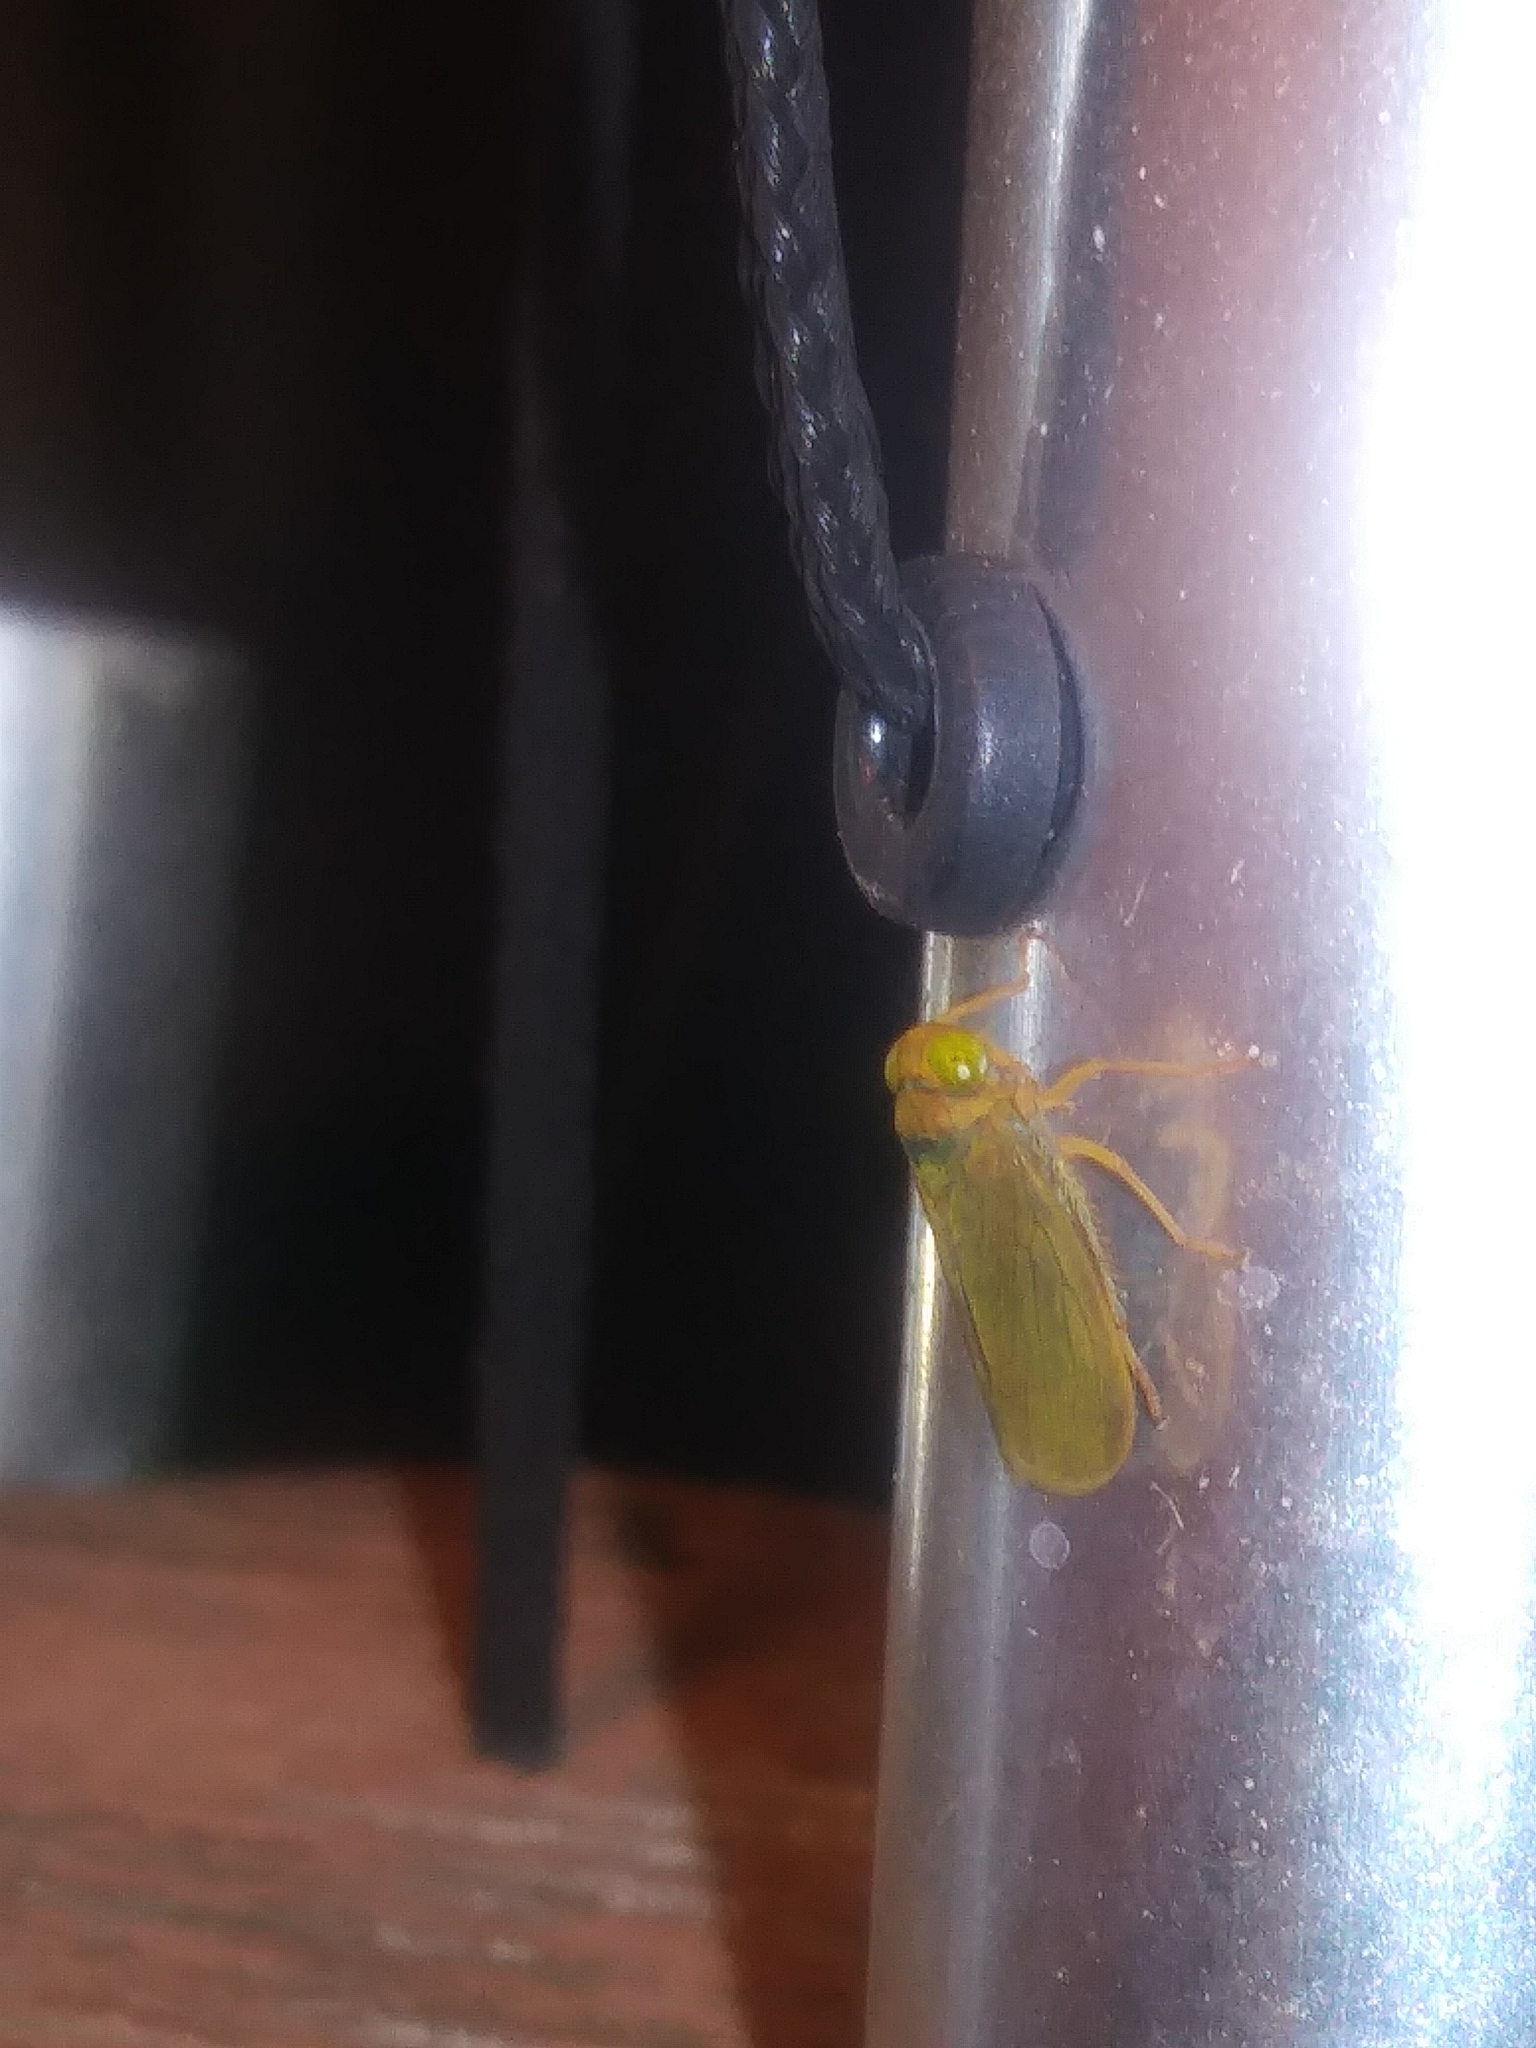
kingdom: Animalia
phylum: Arthropoda
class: Insecta
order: Hemiptera
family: Cicadellidae
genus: Jikradia
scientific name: Jikradia olitoria
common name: Coppery leafhopper
